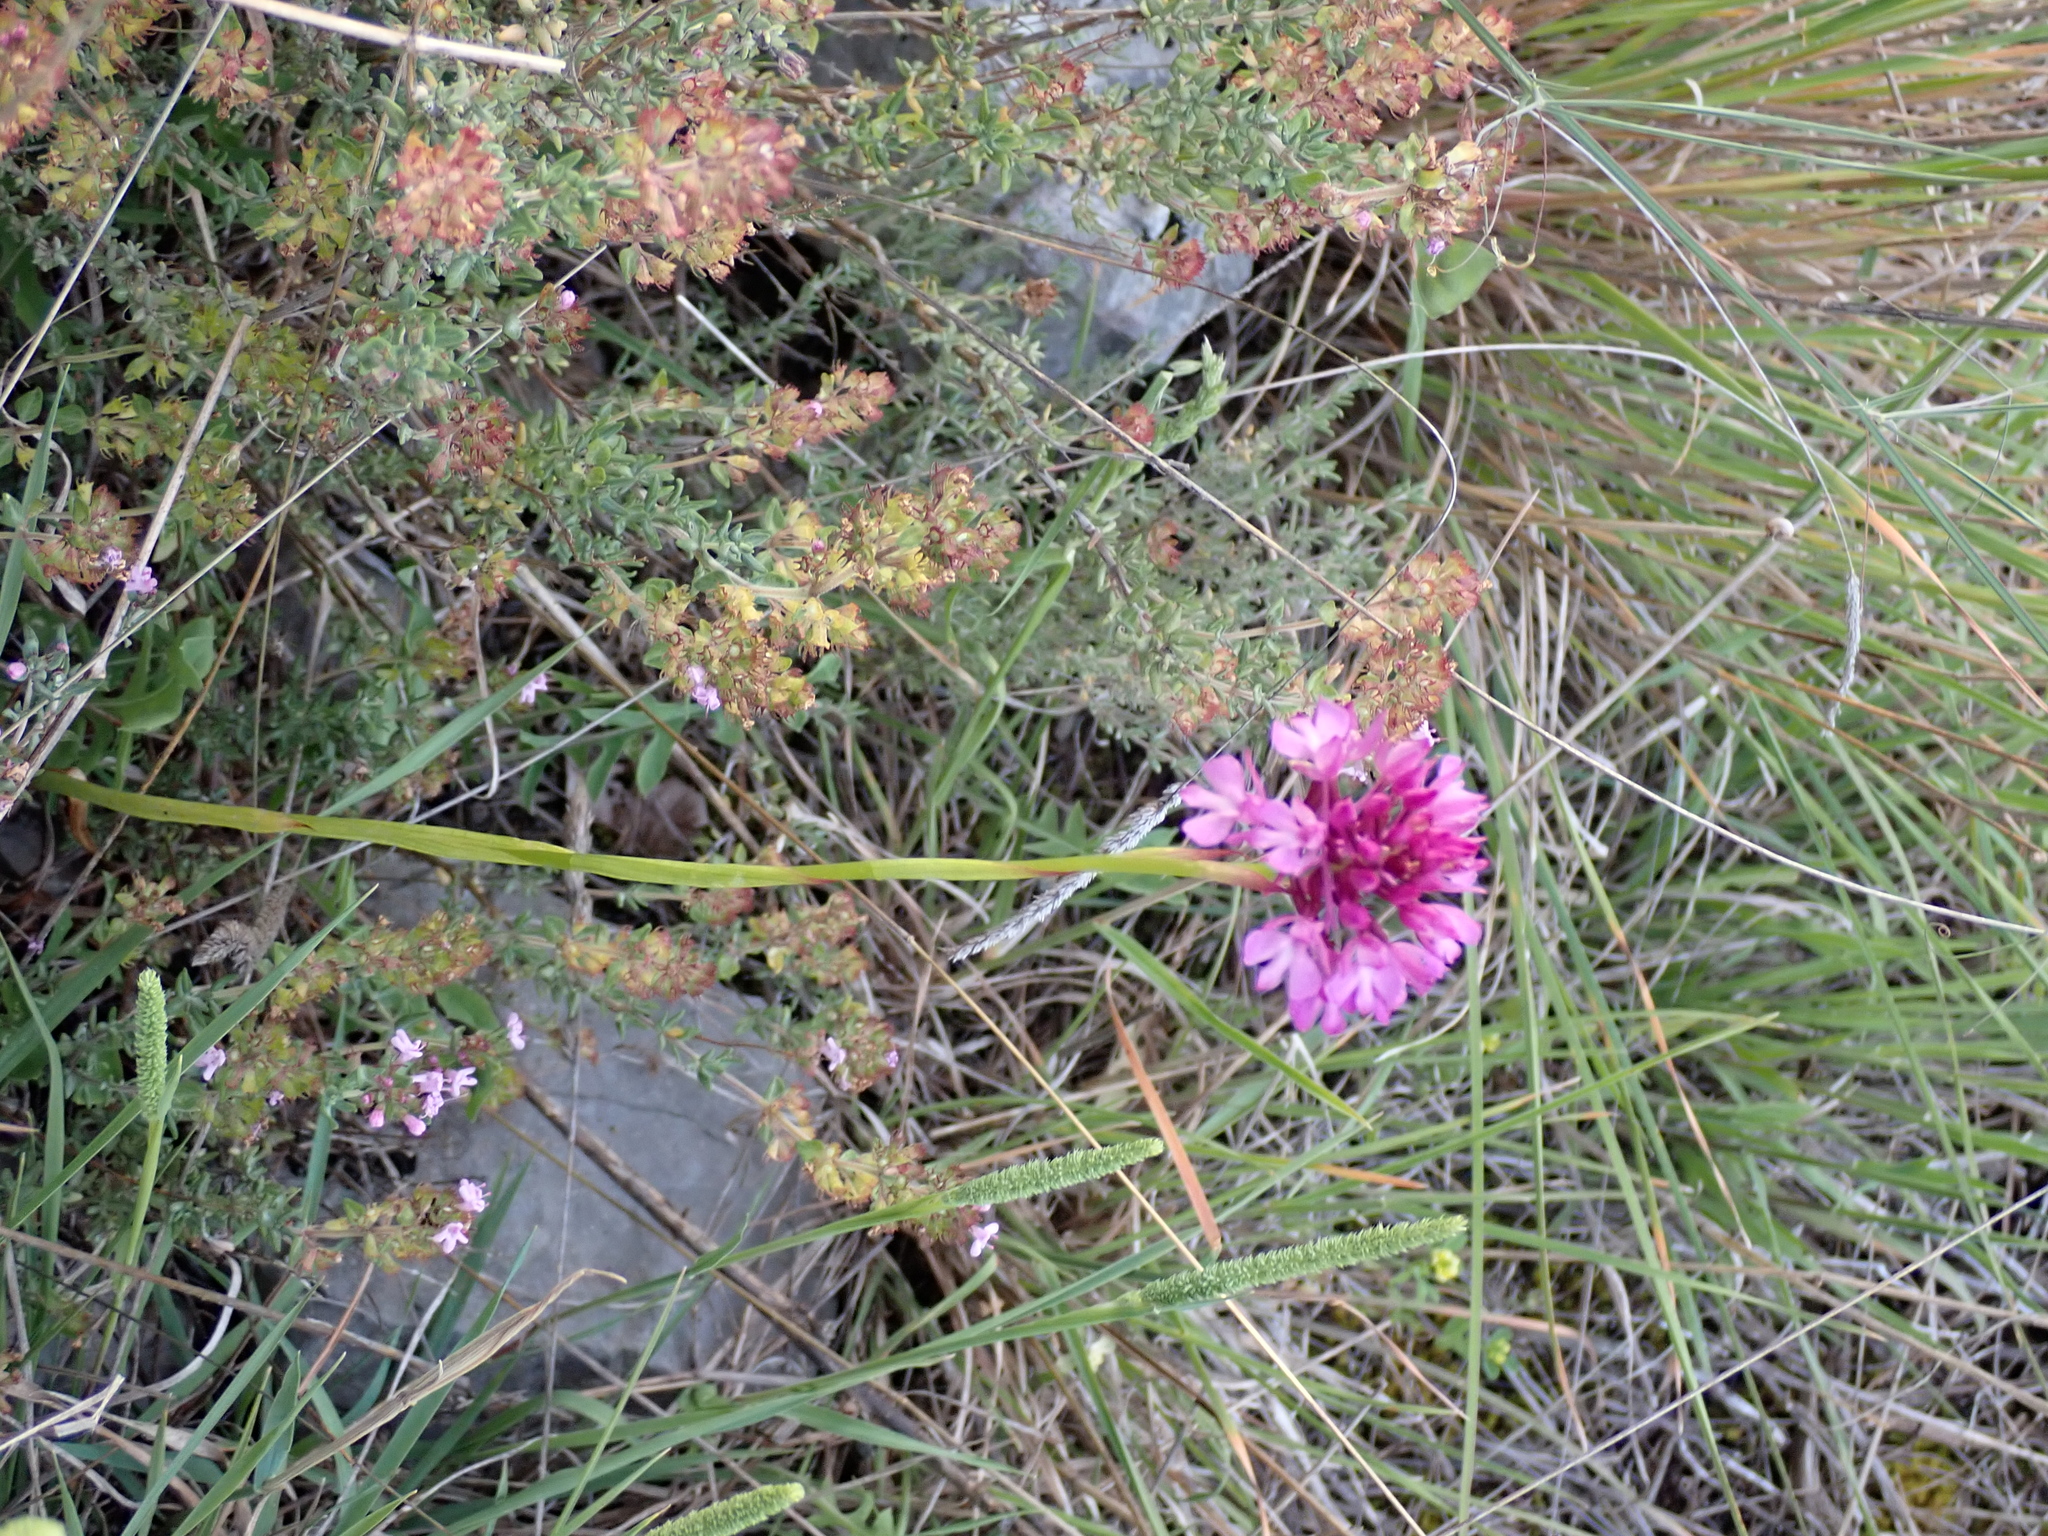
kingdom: Plantae
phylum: Tracheophyta
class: Liliopsida
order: Asparagales
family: Orchidaceae
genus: Anacamptis
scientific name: Anacamptis pyramidalis
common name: Pyramidal orchid
